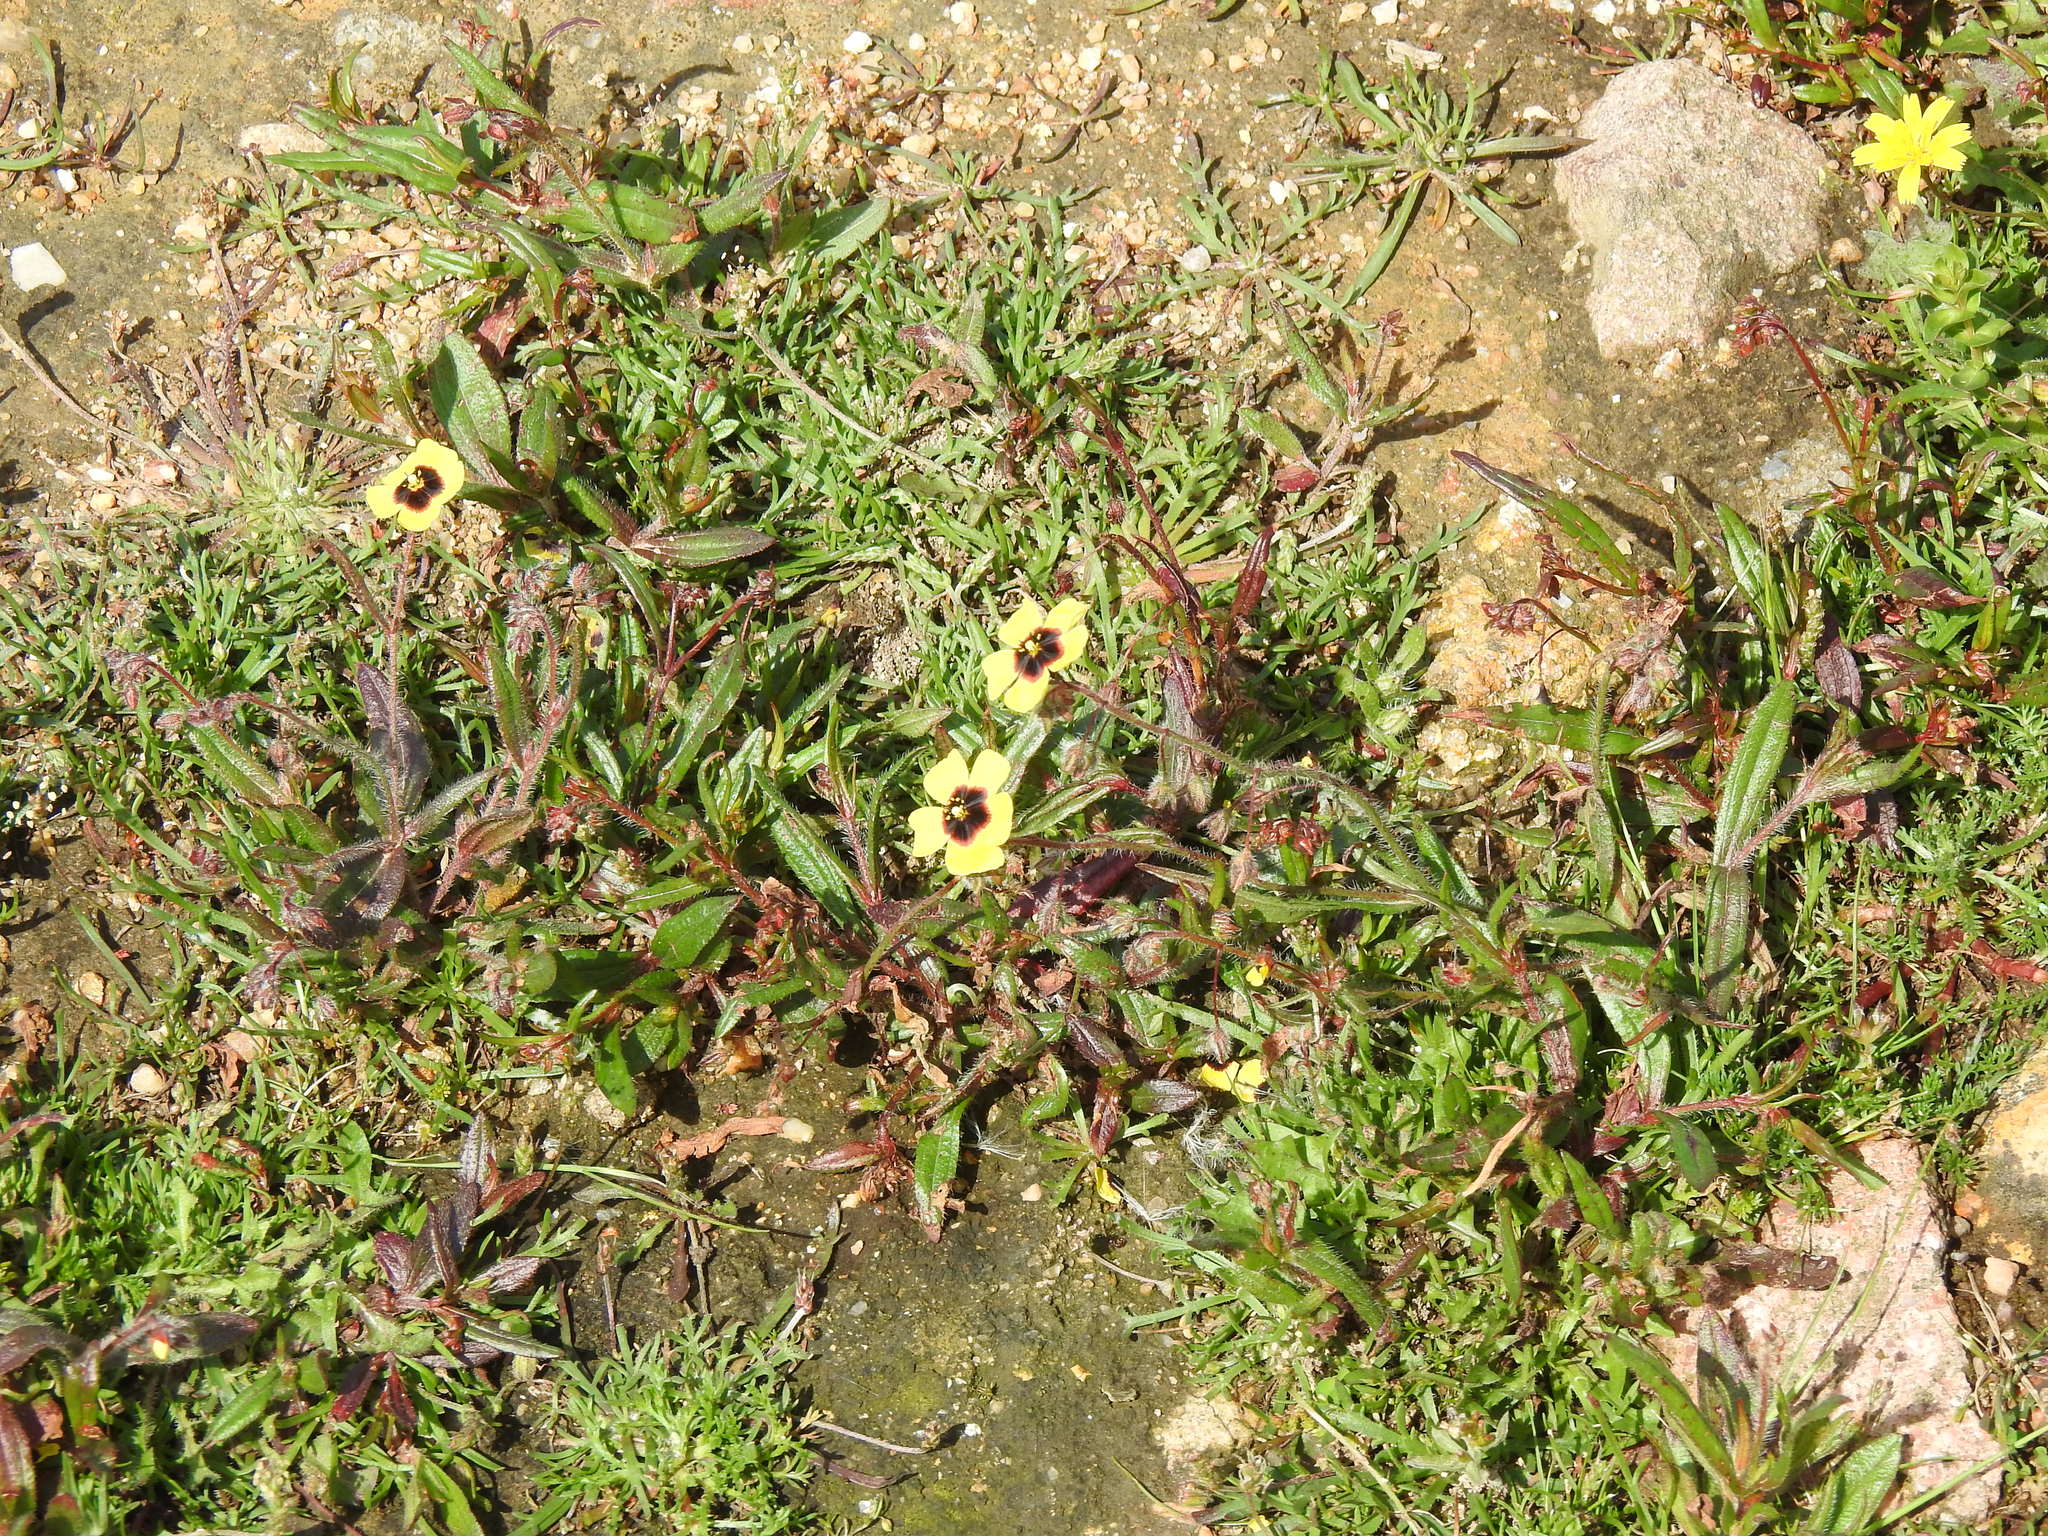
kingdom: Plantae
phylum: Tracheophyta
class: Magnoliopsida
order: Malvales
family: Cistaceae
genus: Tuberaria
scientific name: Tuberaria guttata
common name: Spotted rock-rose
